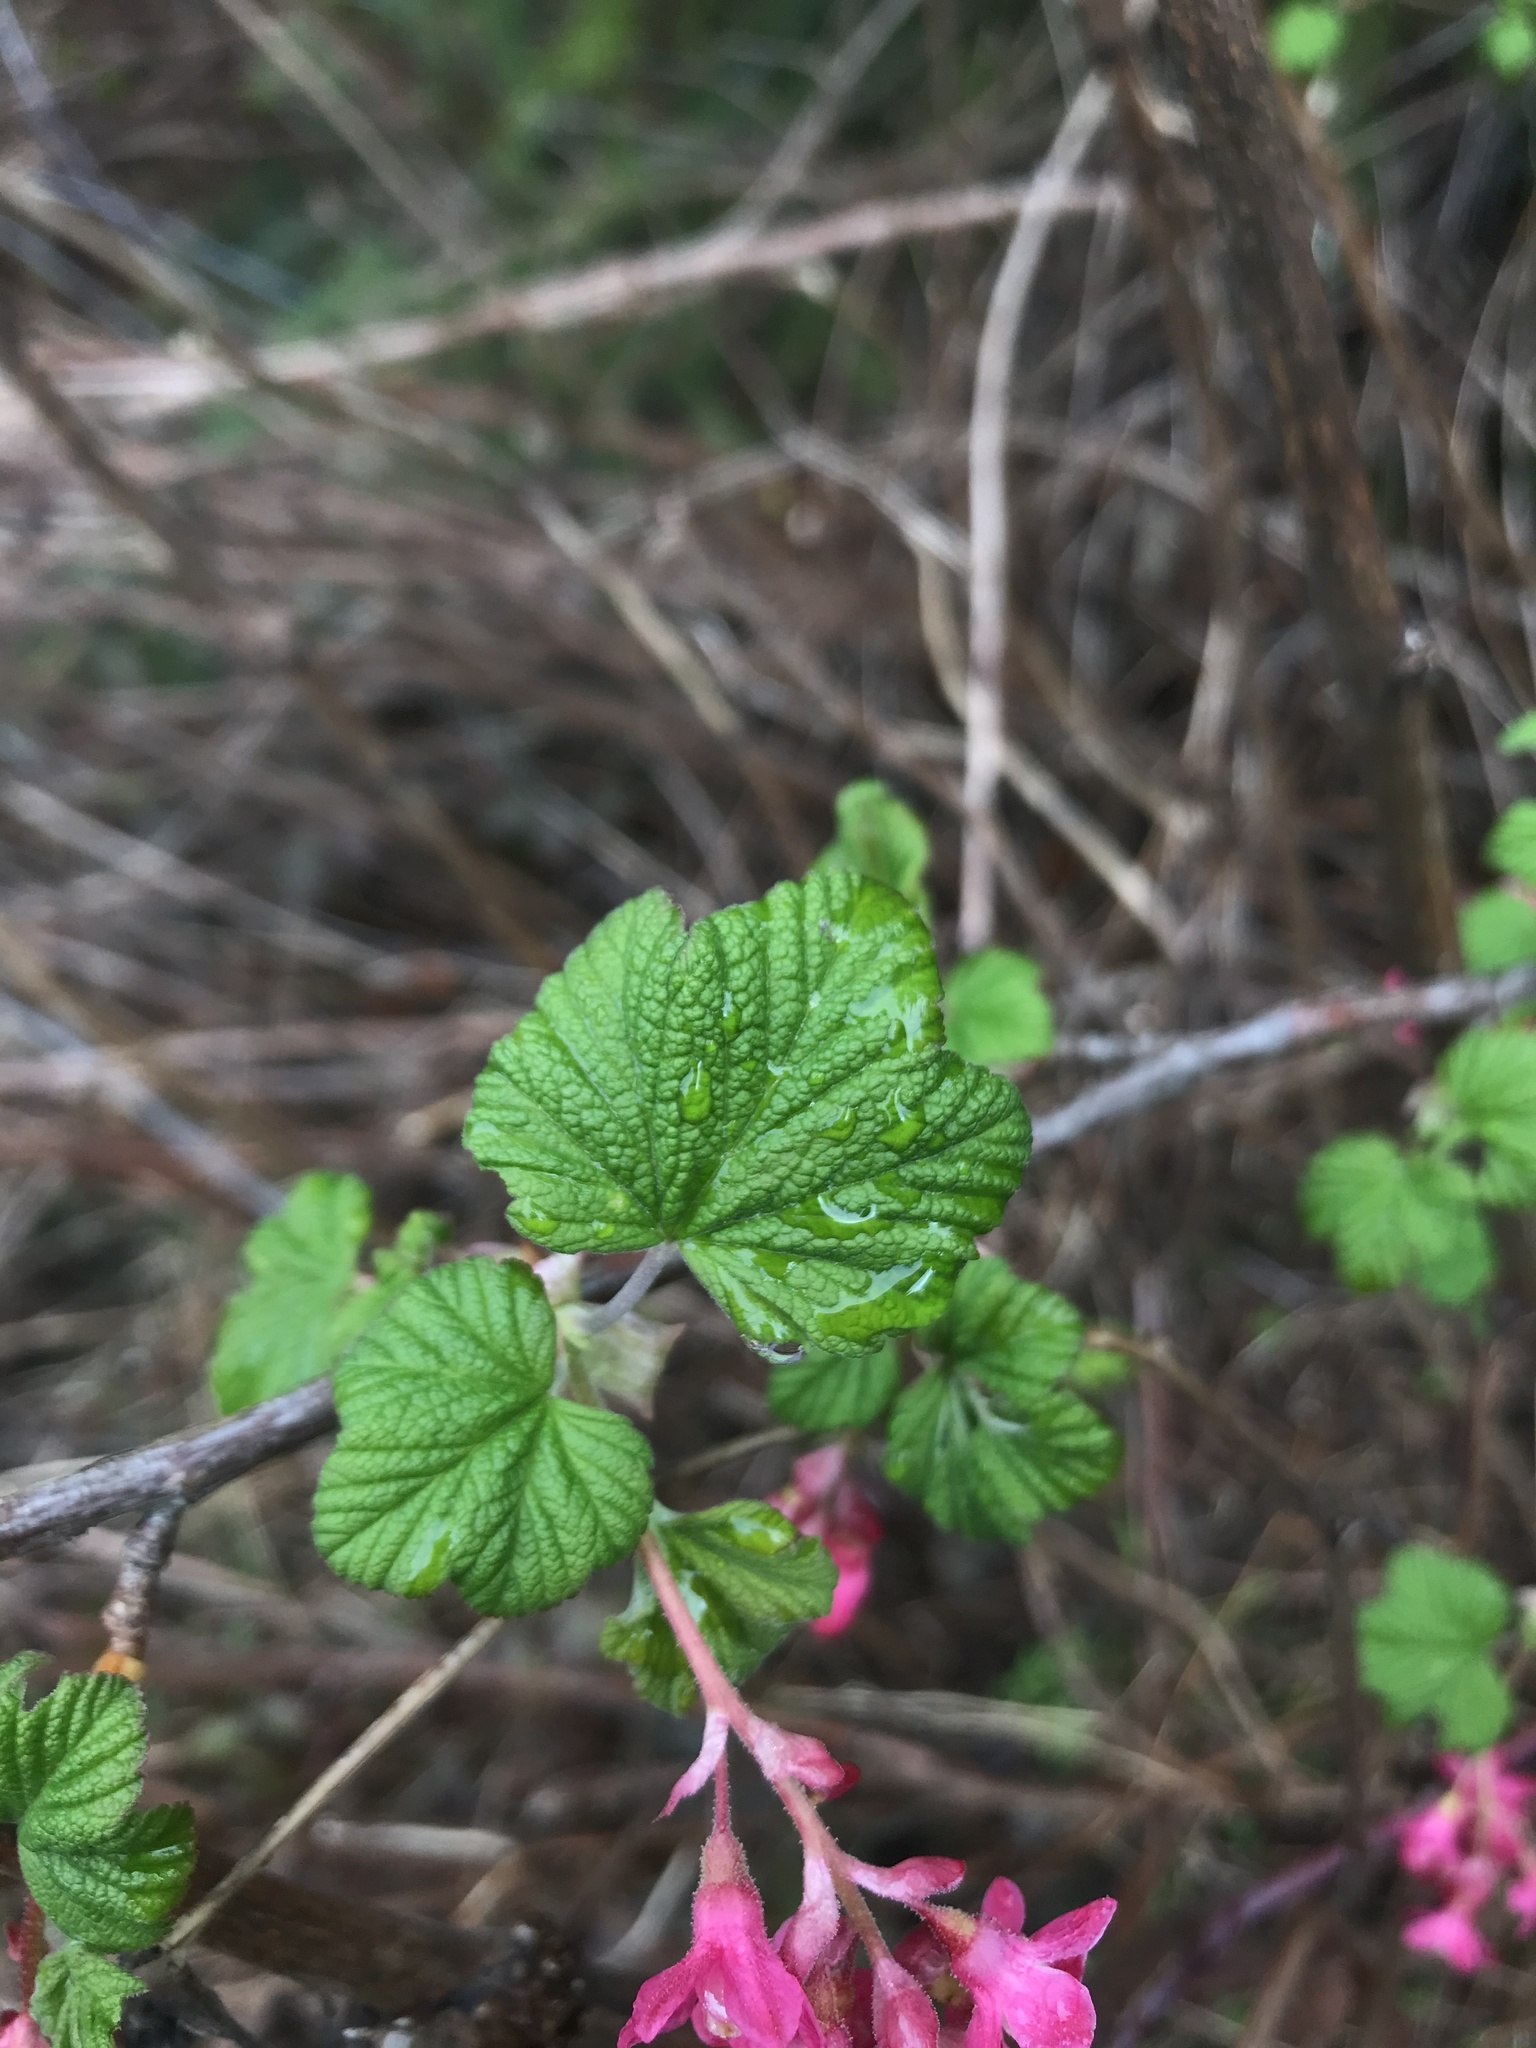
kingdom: Plantae
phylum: Tracheophyta
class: Magnoliopsida
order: Saxifragales
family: Grossulariaceae
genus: Ribes
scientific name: Ribes sanguineum
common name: Flowering currant
